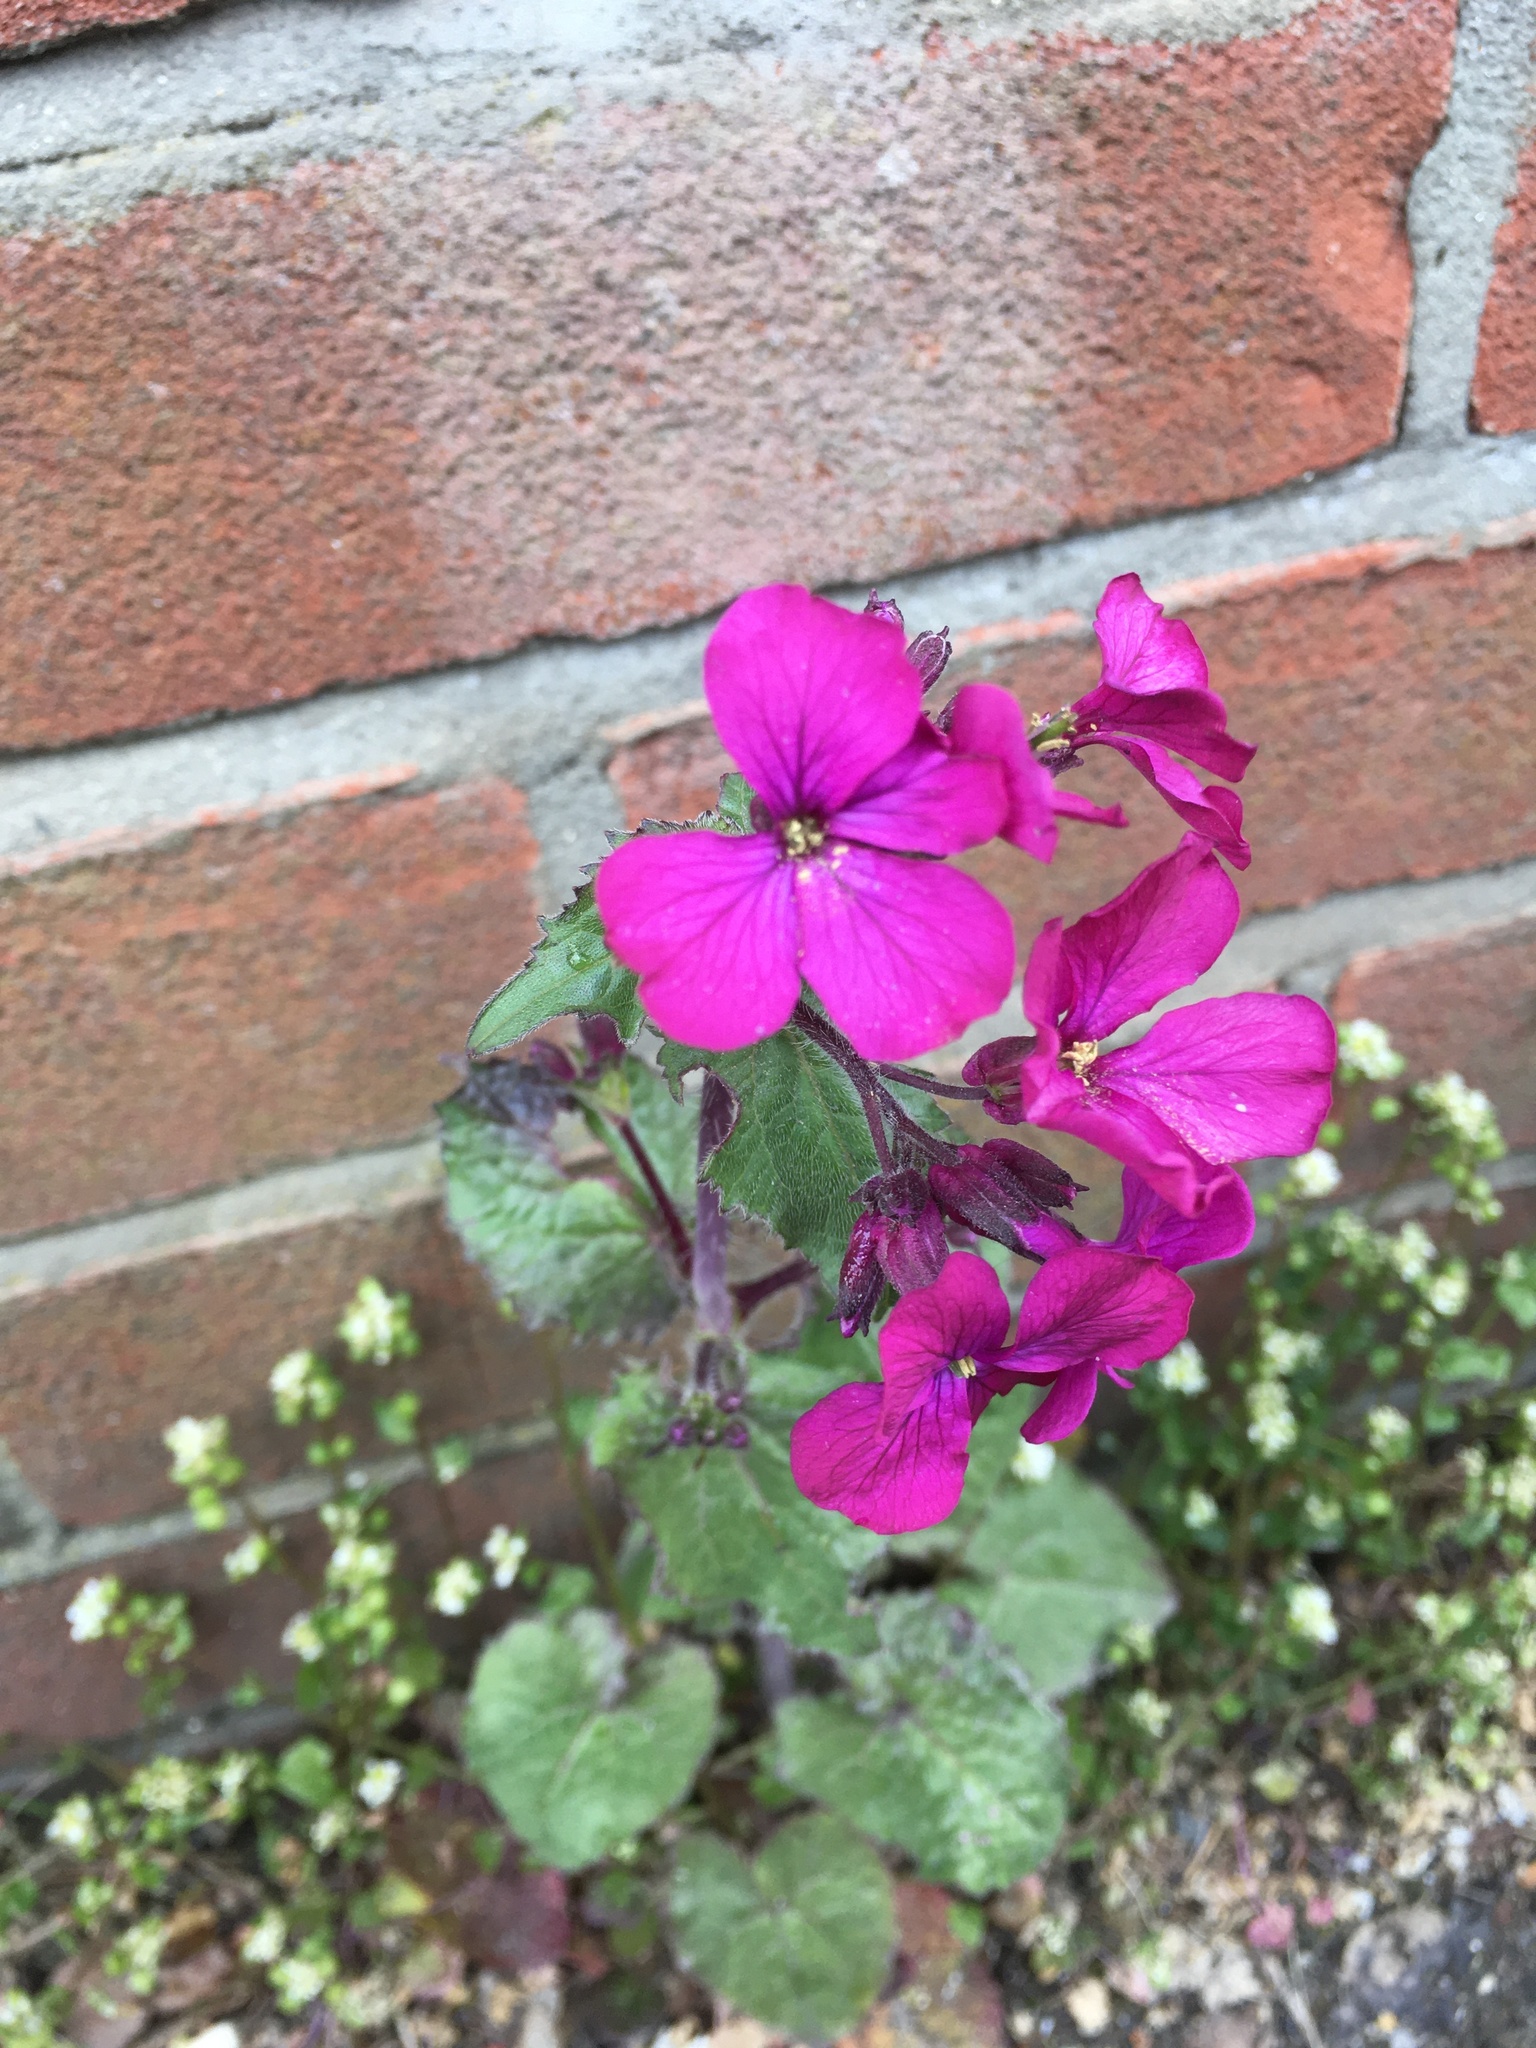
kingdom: Plantae
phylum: Tracheophyta
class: Magnoliopsida
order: Brassicales
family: Brassicaceae
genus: Lunaria
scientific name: Lunaria annua
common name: Honesty
